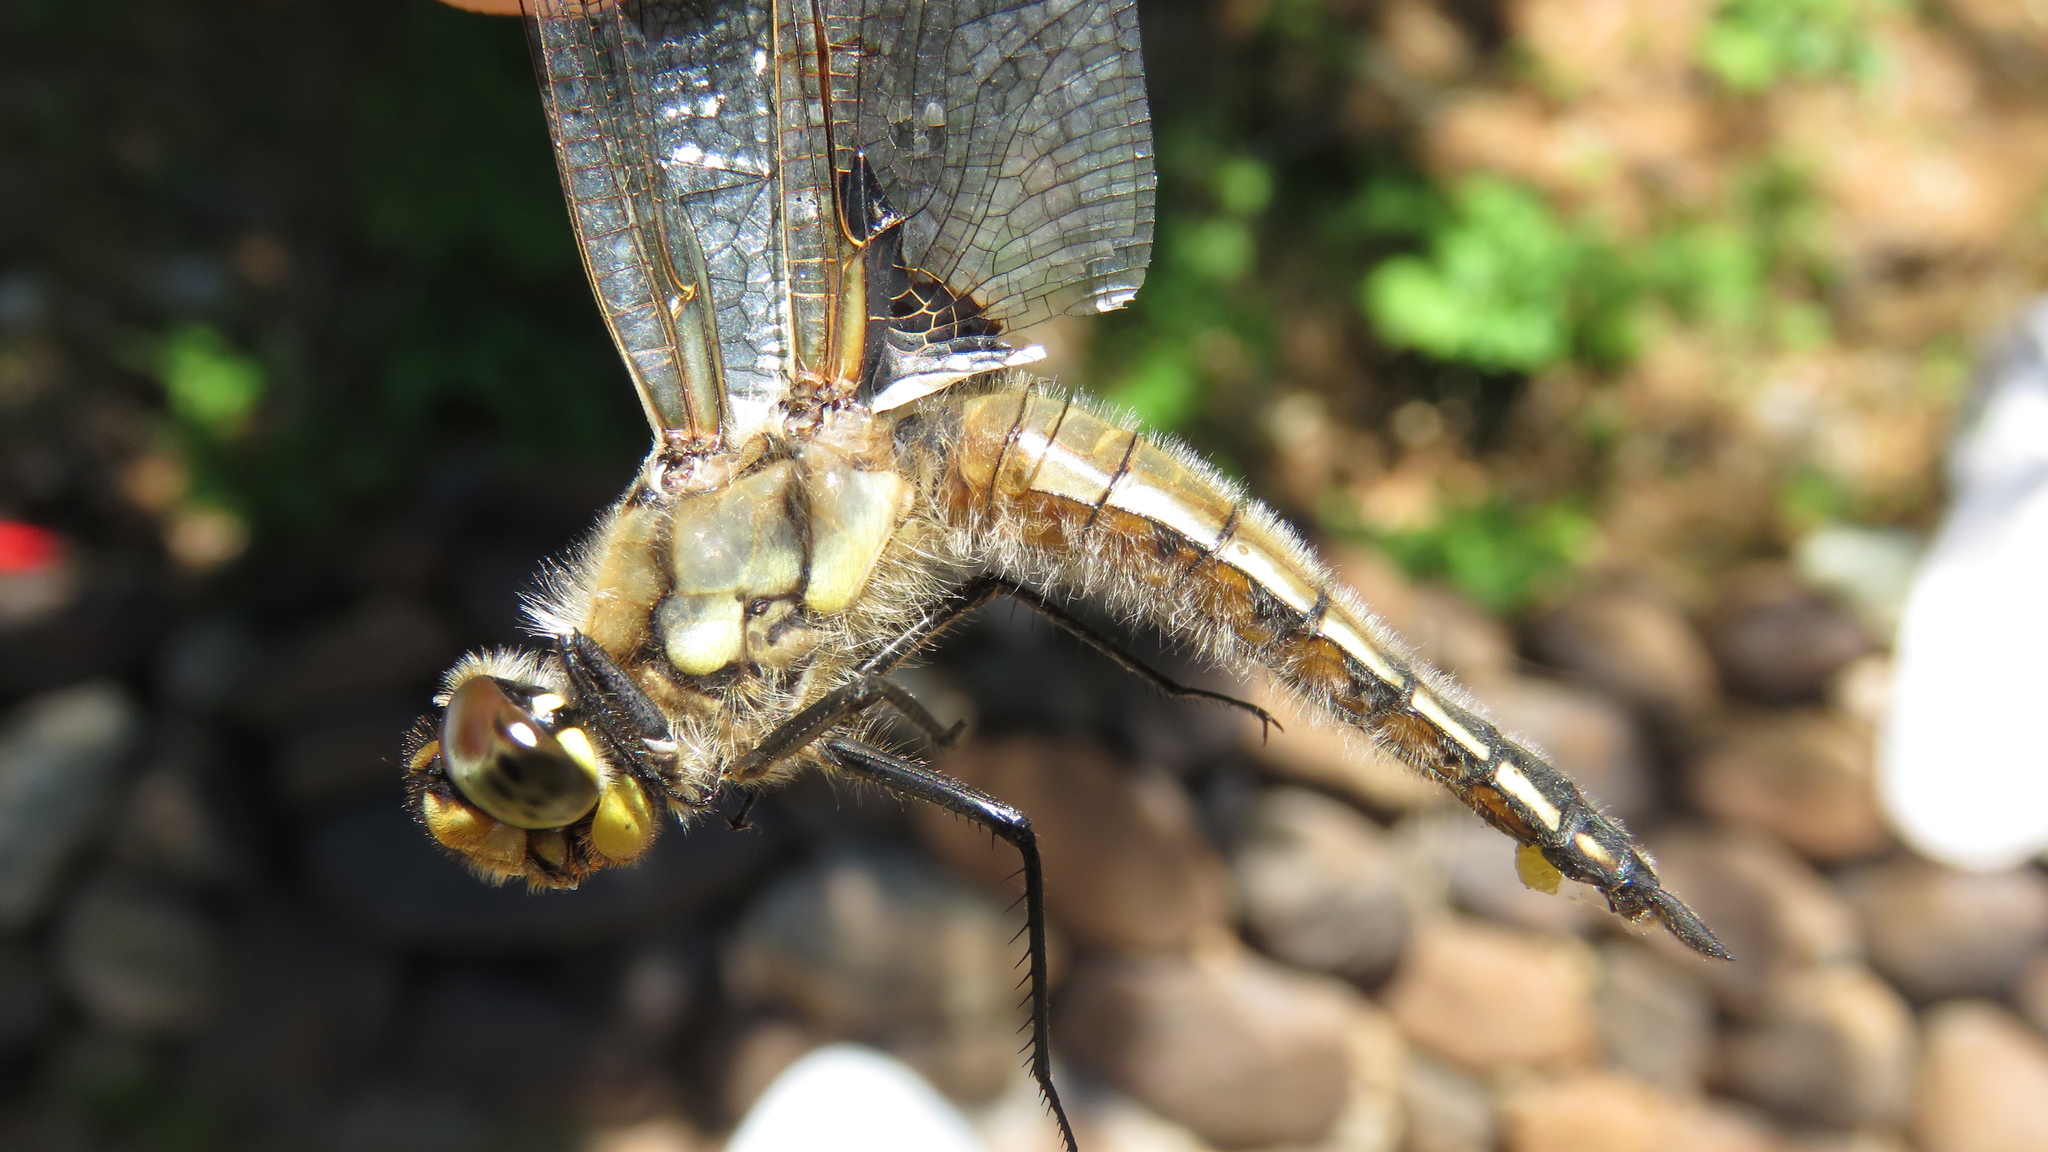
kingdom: Animalia
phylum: Arthropoda
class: Insecta
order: Odonata
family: Libellulidae
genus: Libellula
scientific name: Libellula quadrimaculata
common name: Four-spotted chaser
